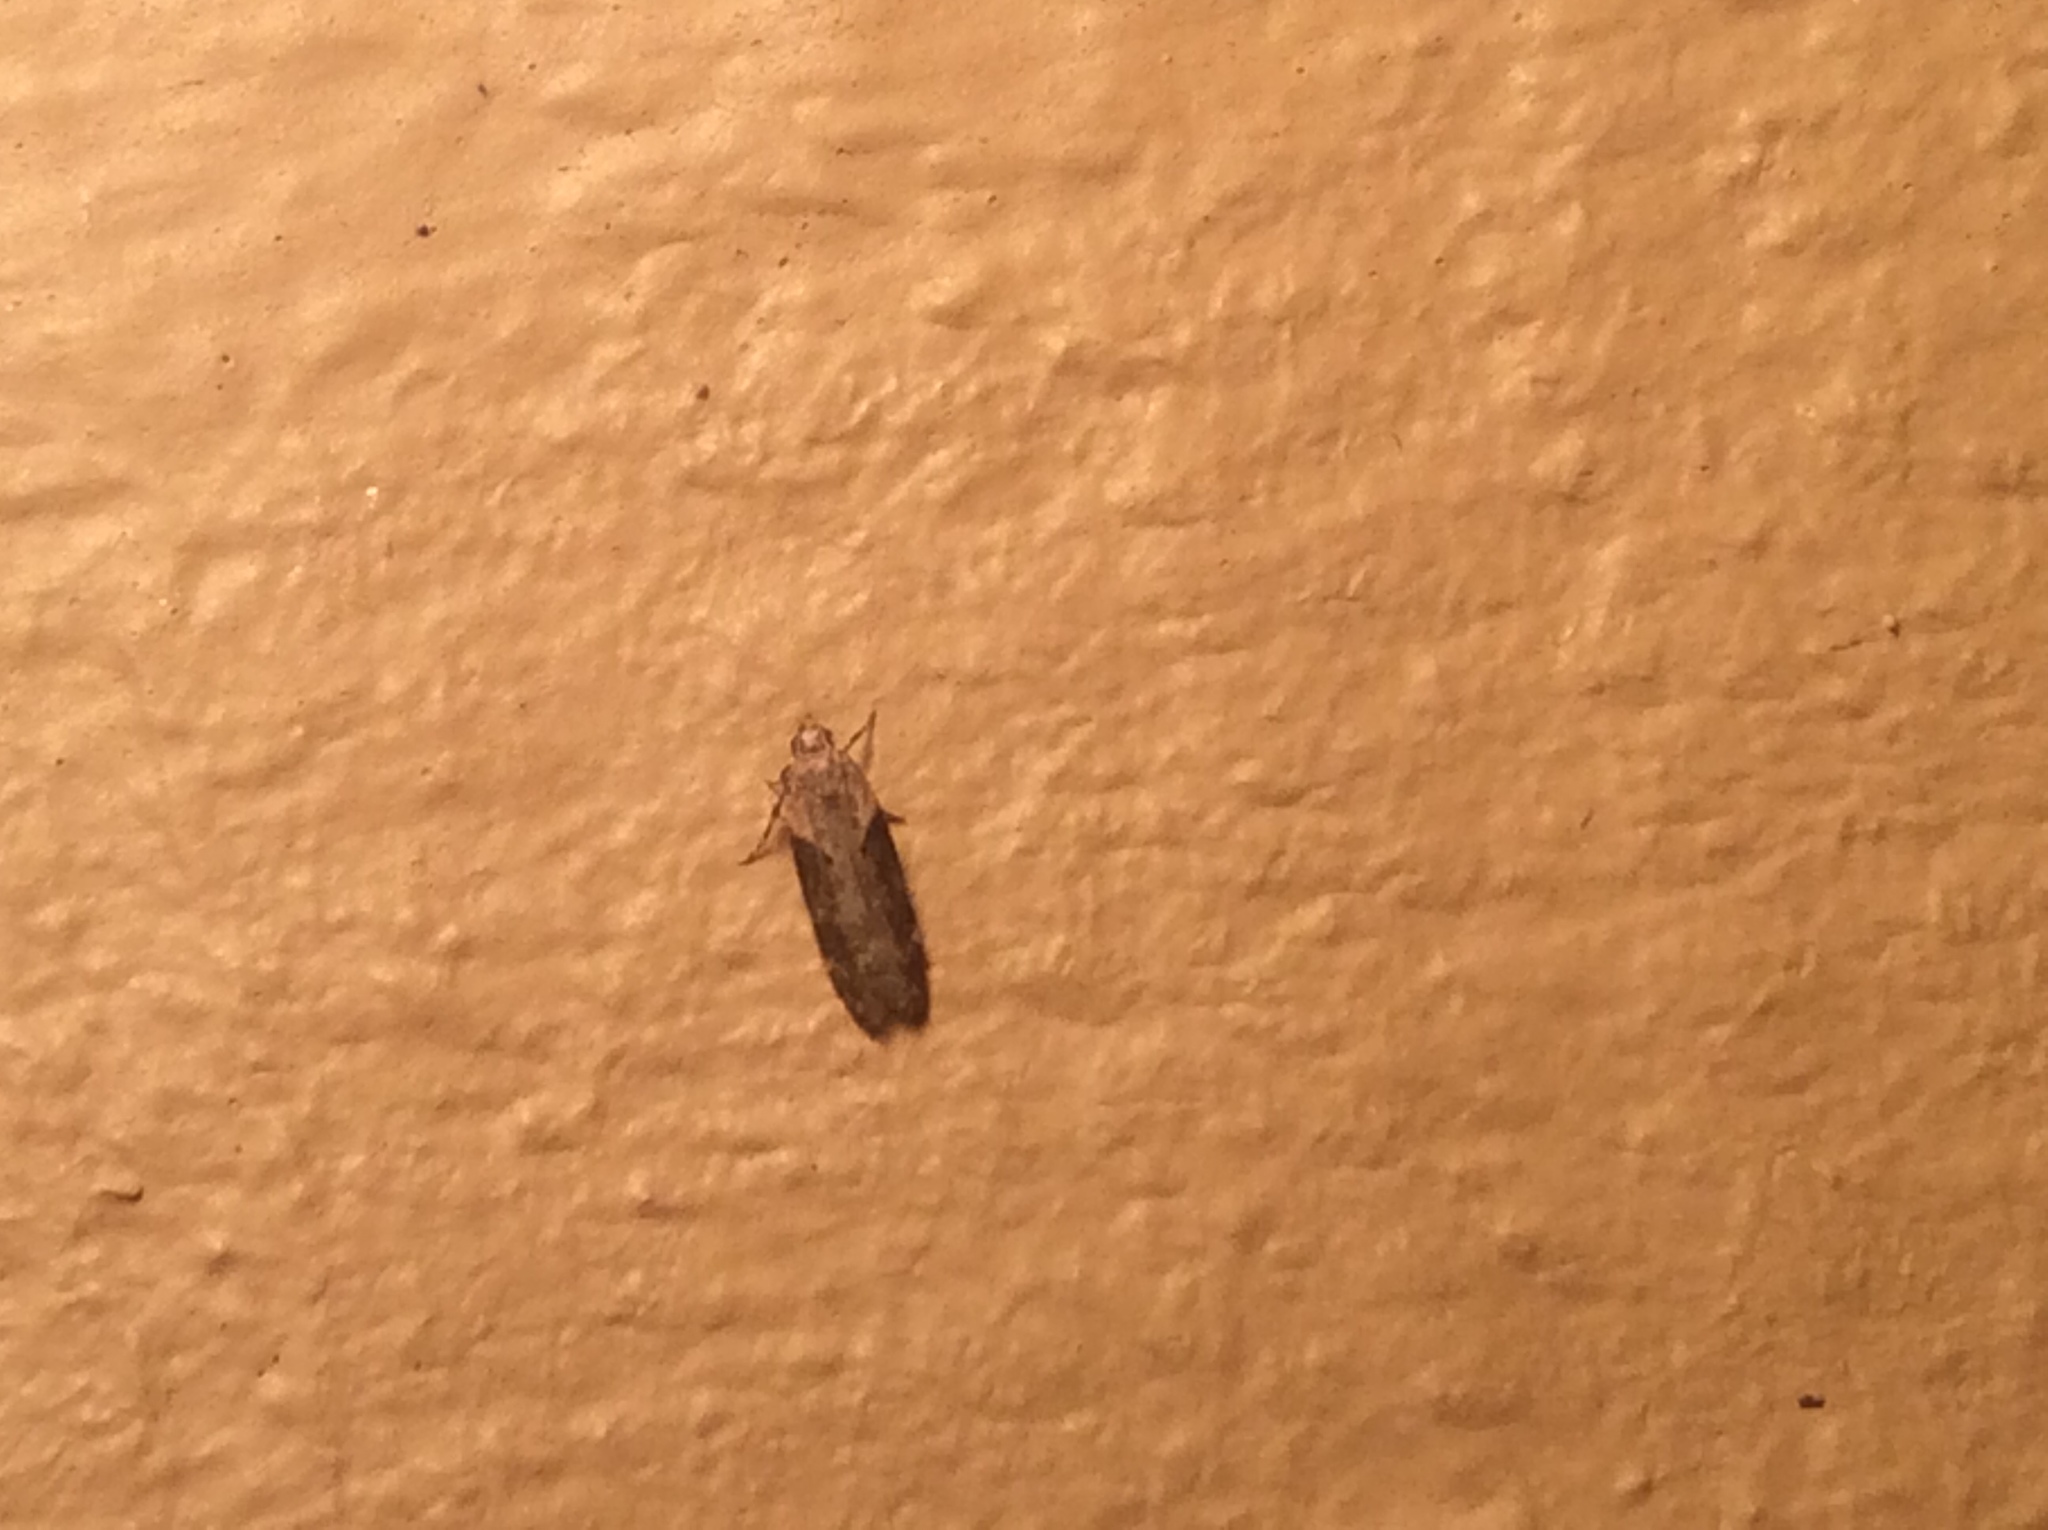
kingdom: Animalia
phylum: Arthropoda
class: Insecta
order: Lepidoptera
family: Gelechiidae
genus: Chionodes
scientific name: Chionodes mediofuscella
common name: Black-smudged chionodes moth
